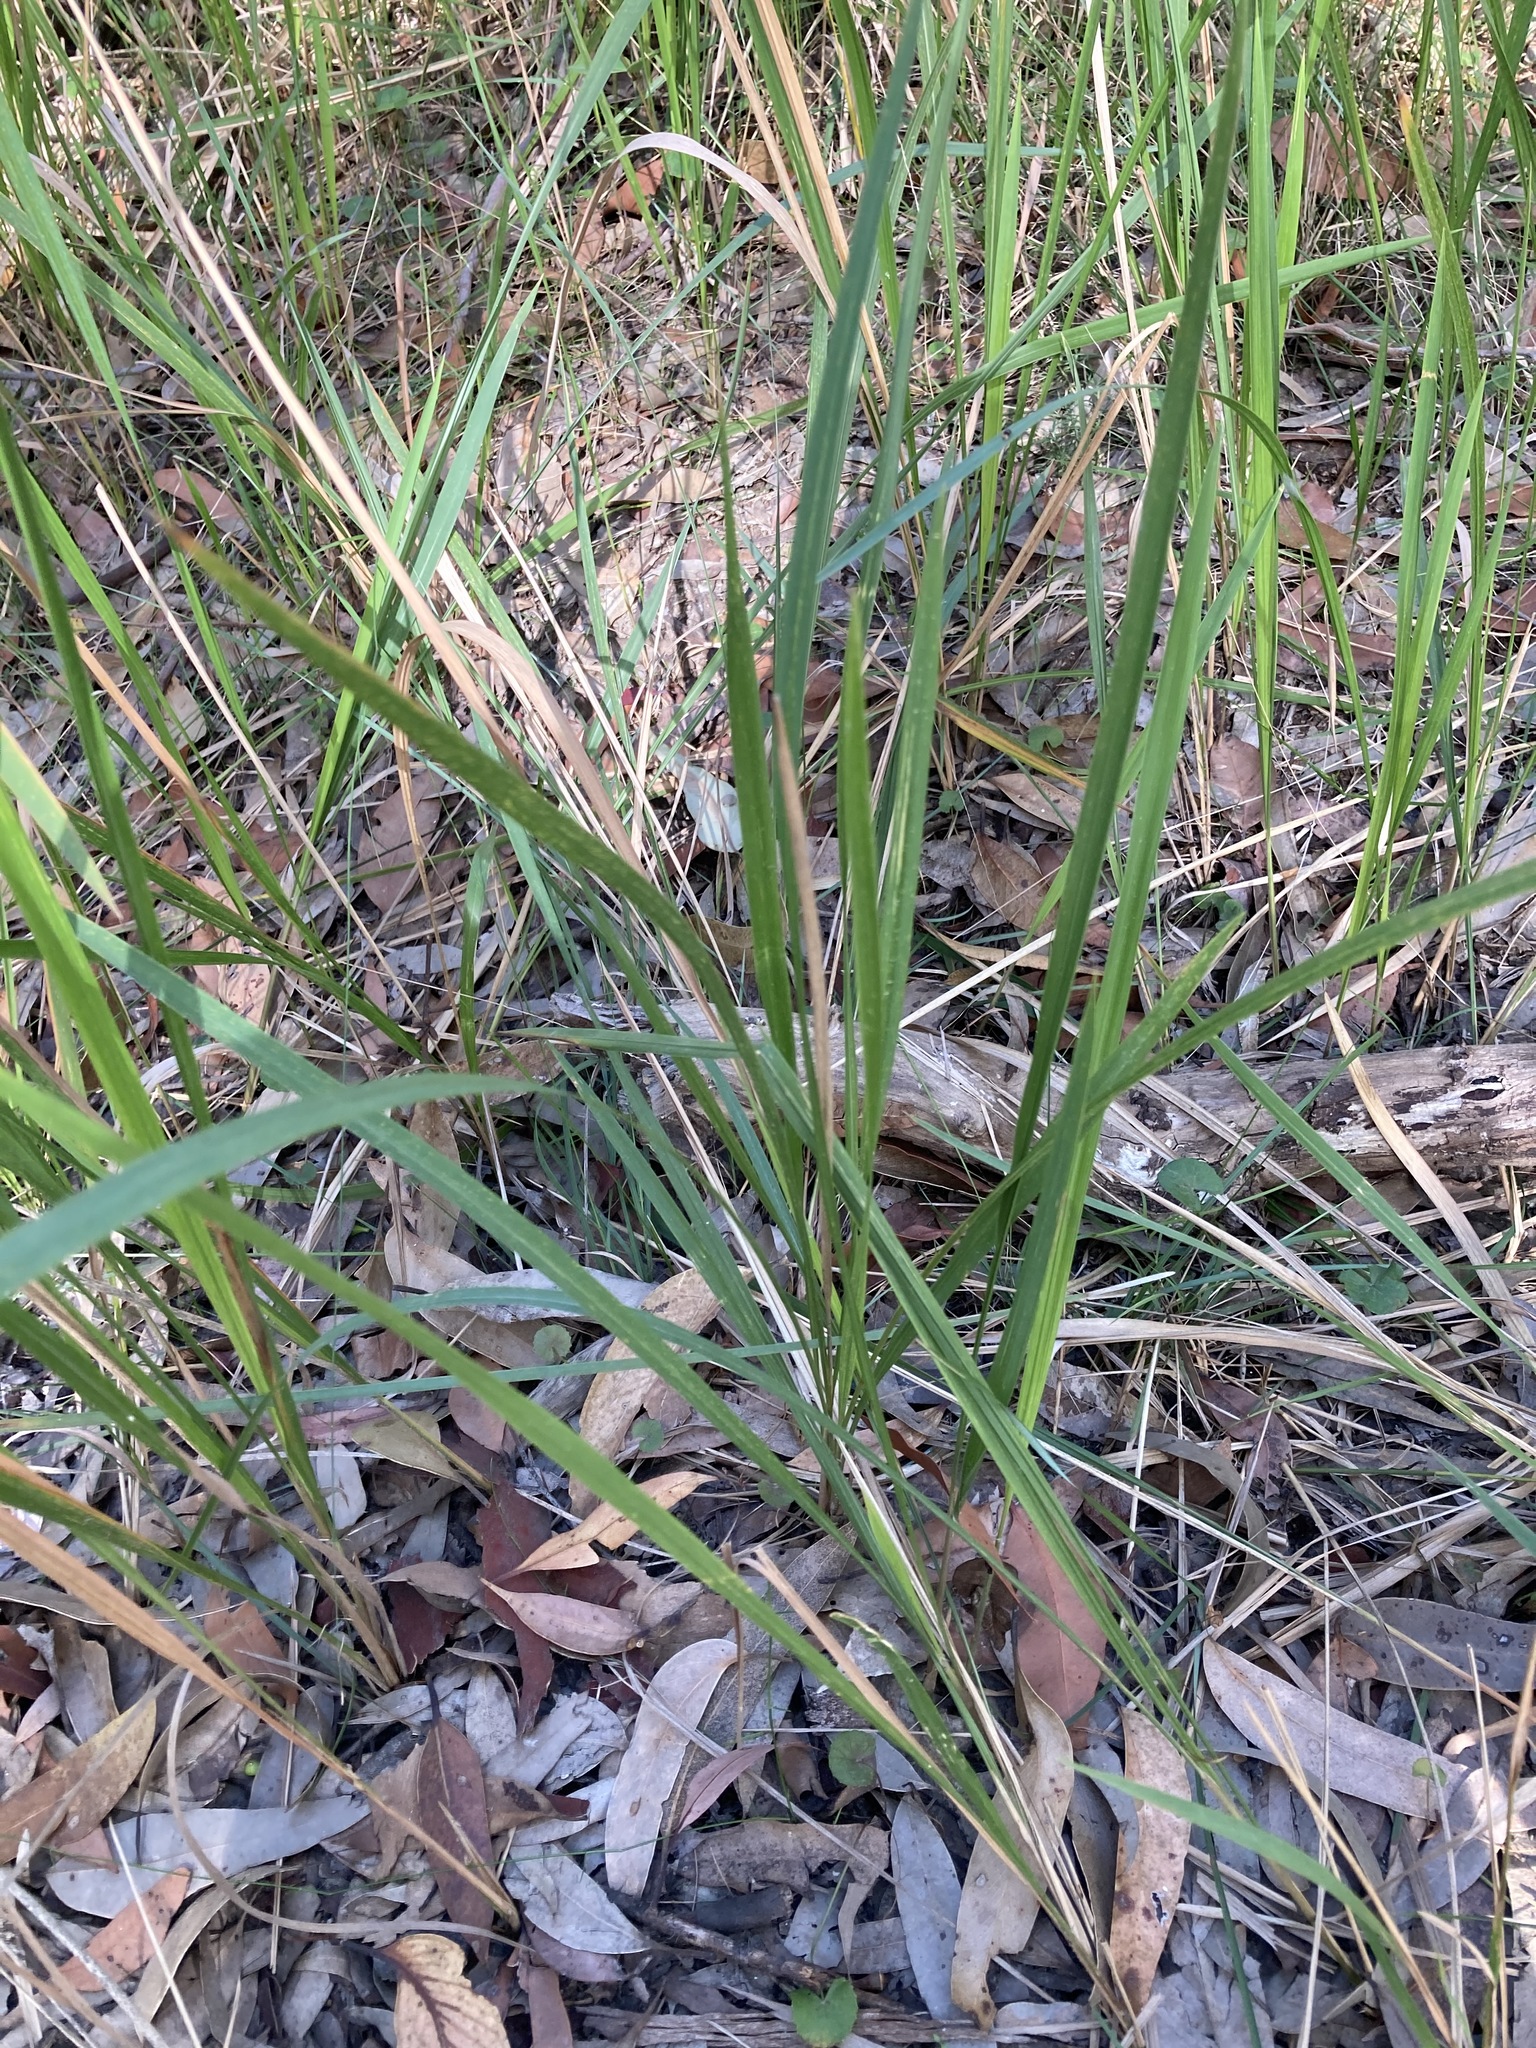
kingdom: Plantae
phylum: Tracheophyta
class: Liliopsida
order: Poales
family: Poaceae
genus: Imperata
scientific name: Imperata cylindrica
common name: Cogongrass
